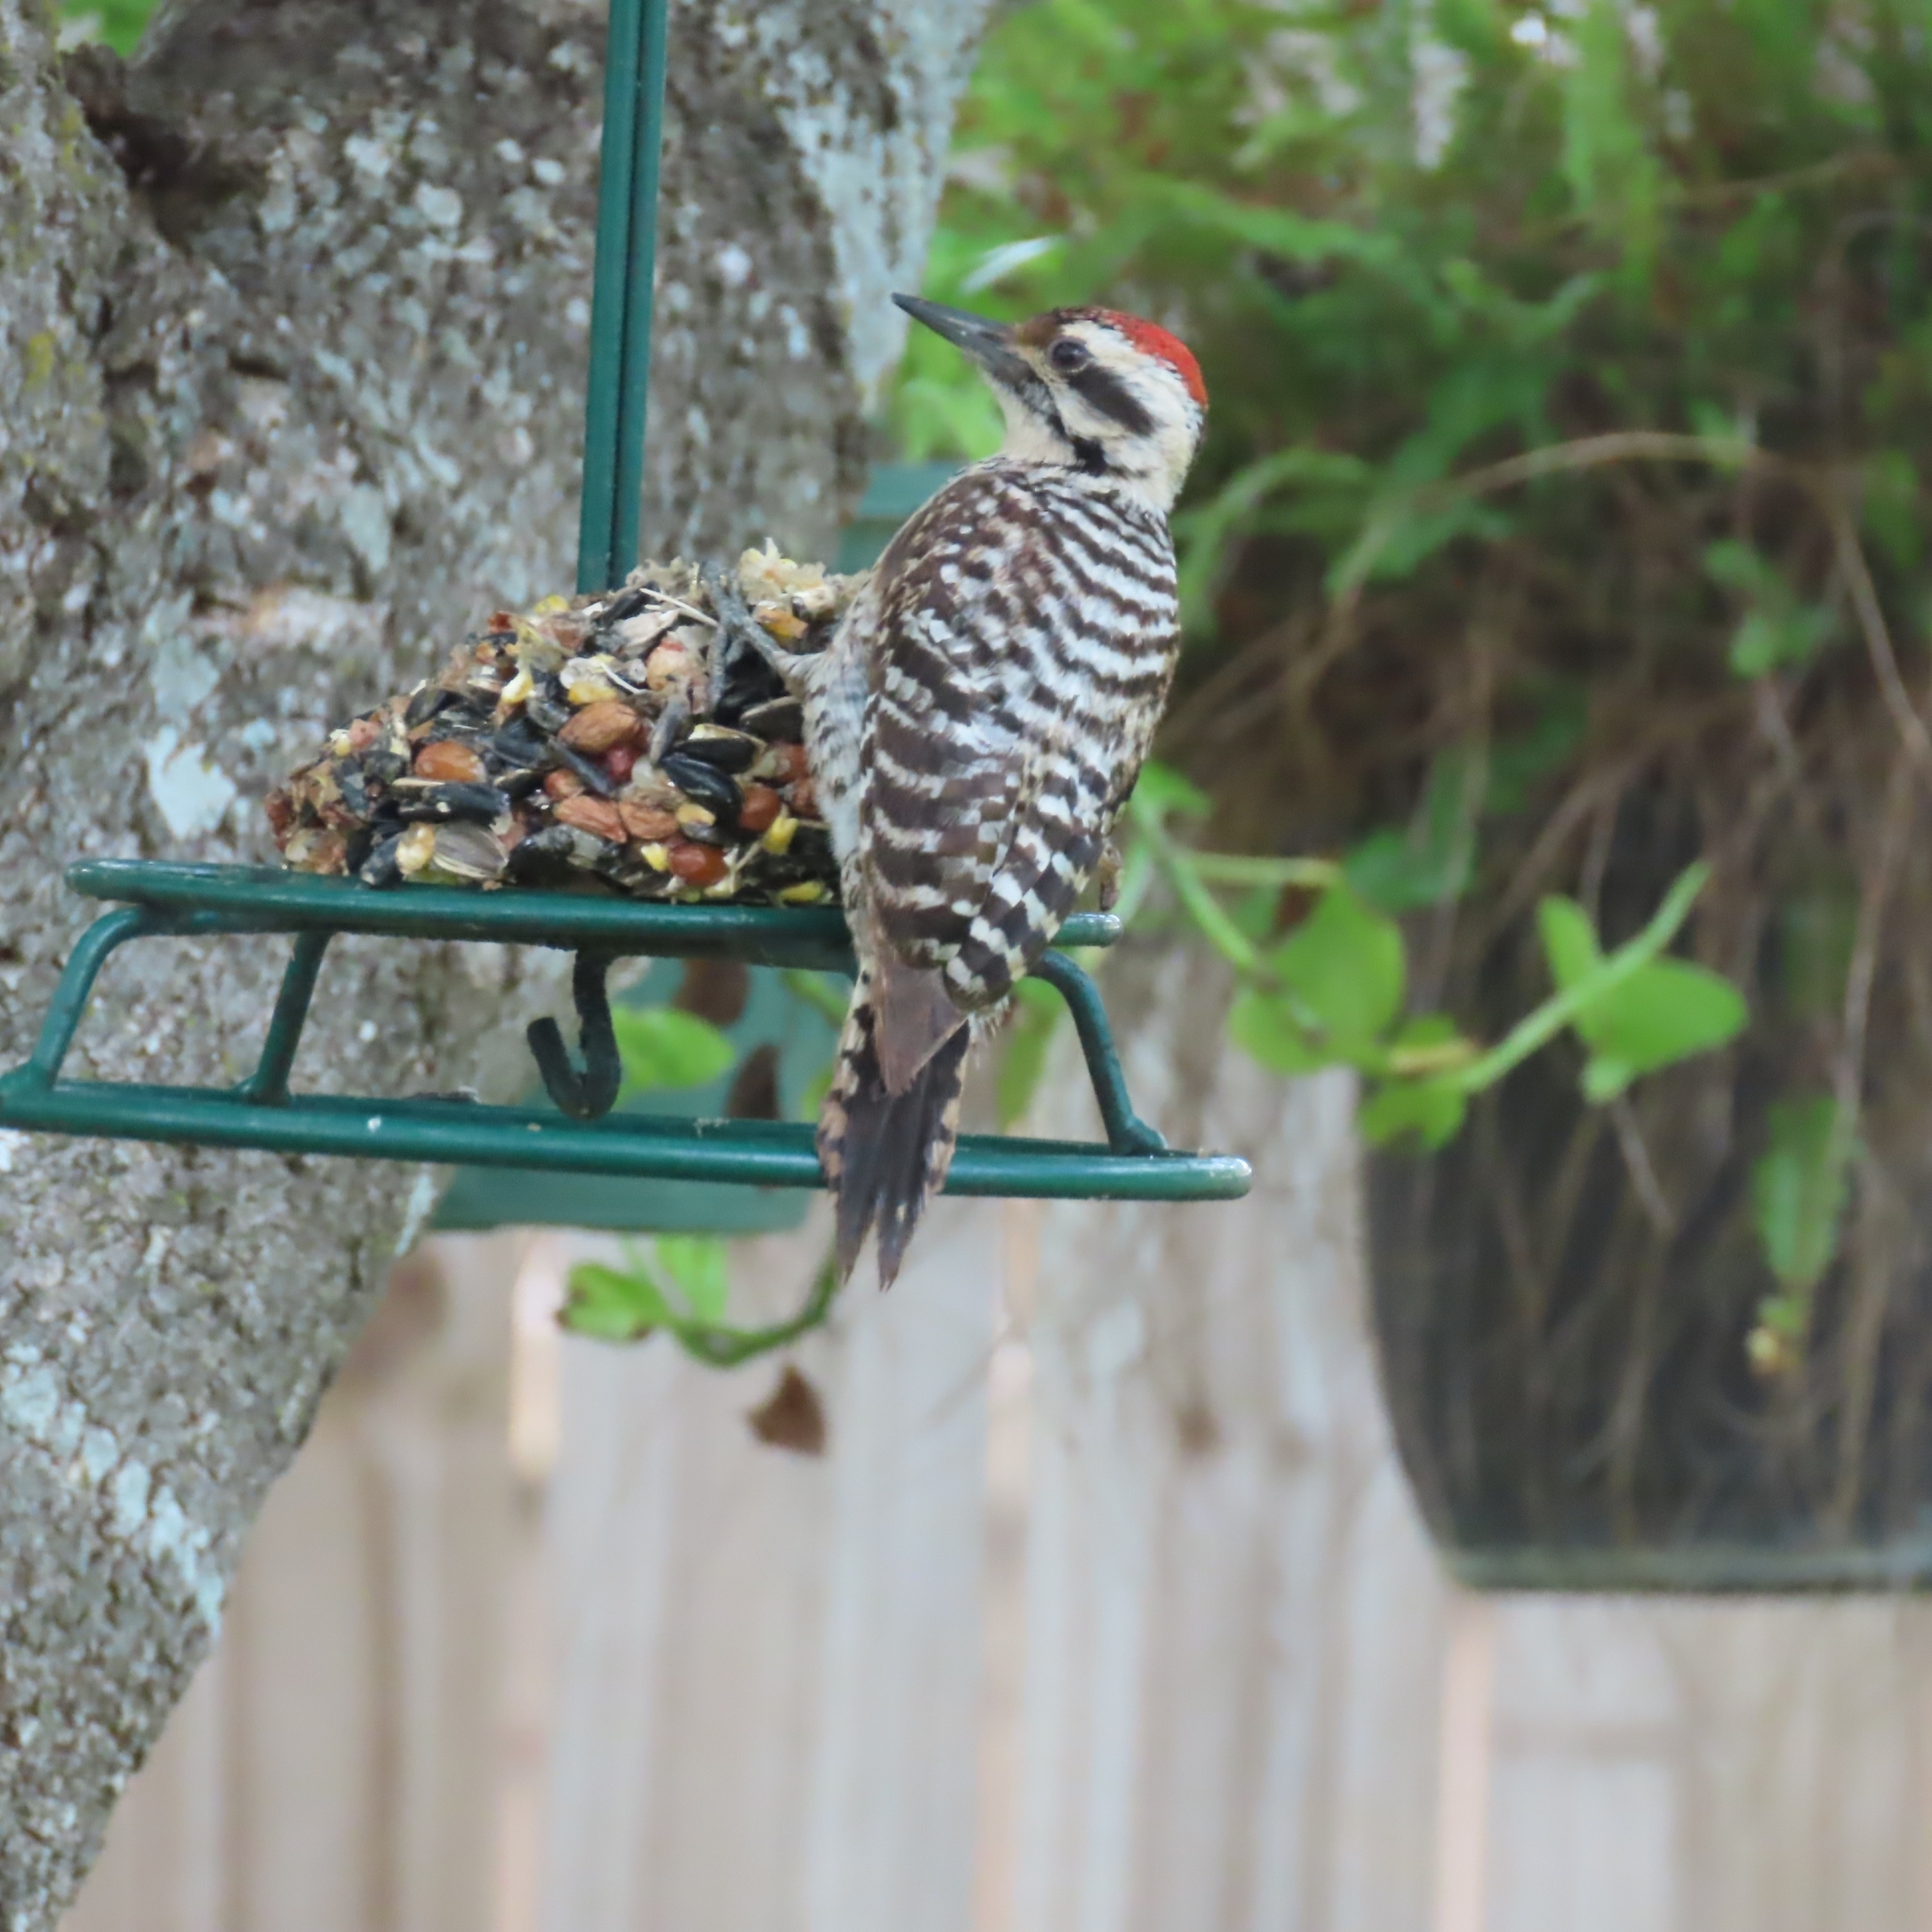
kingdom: Animalia
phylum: Chordata
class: Aves
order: Piciformes
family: Picidae
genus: Dryobates
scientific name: Dryobates scalaris
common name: Ladder-backed woodpecker
